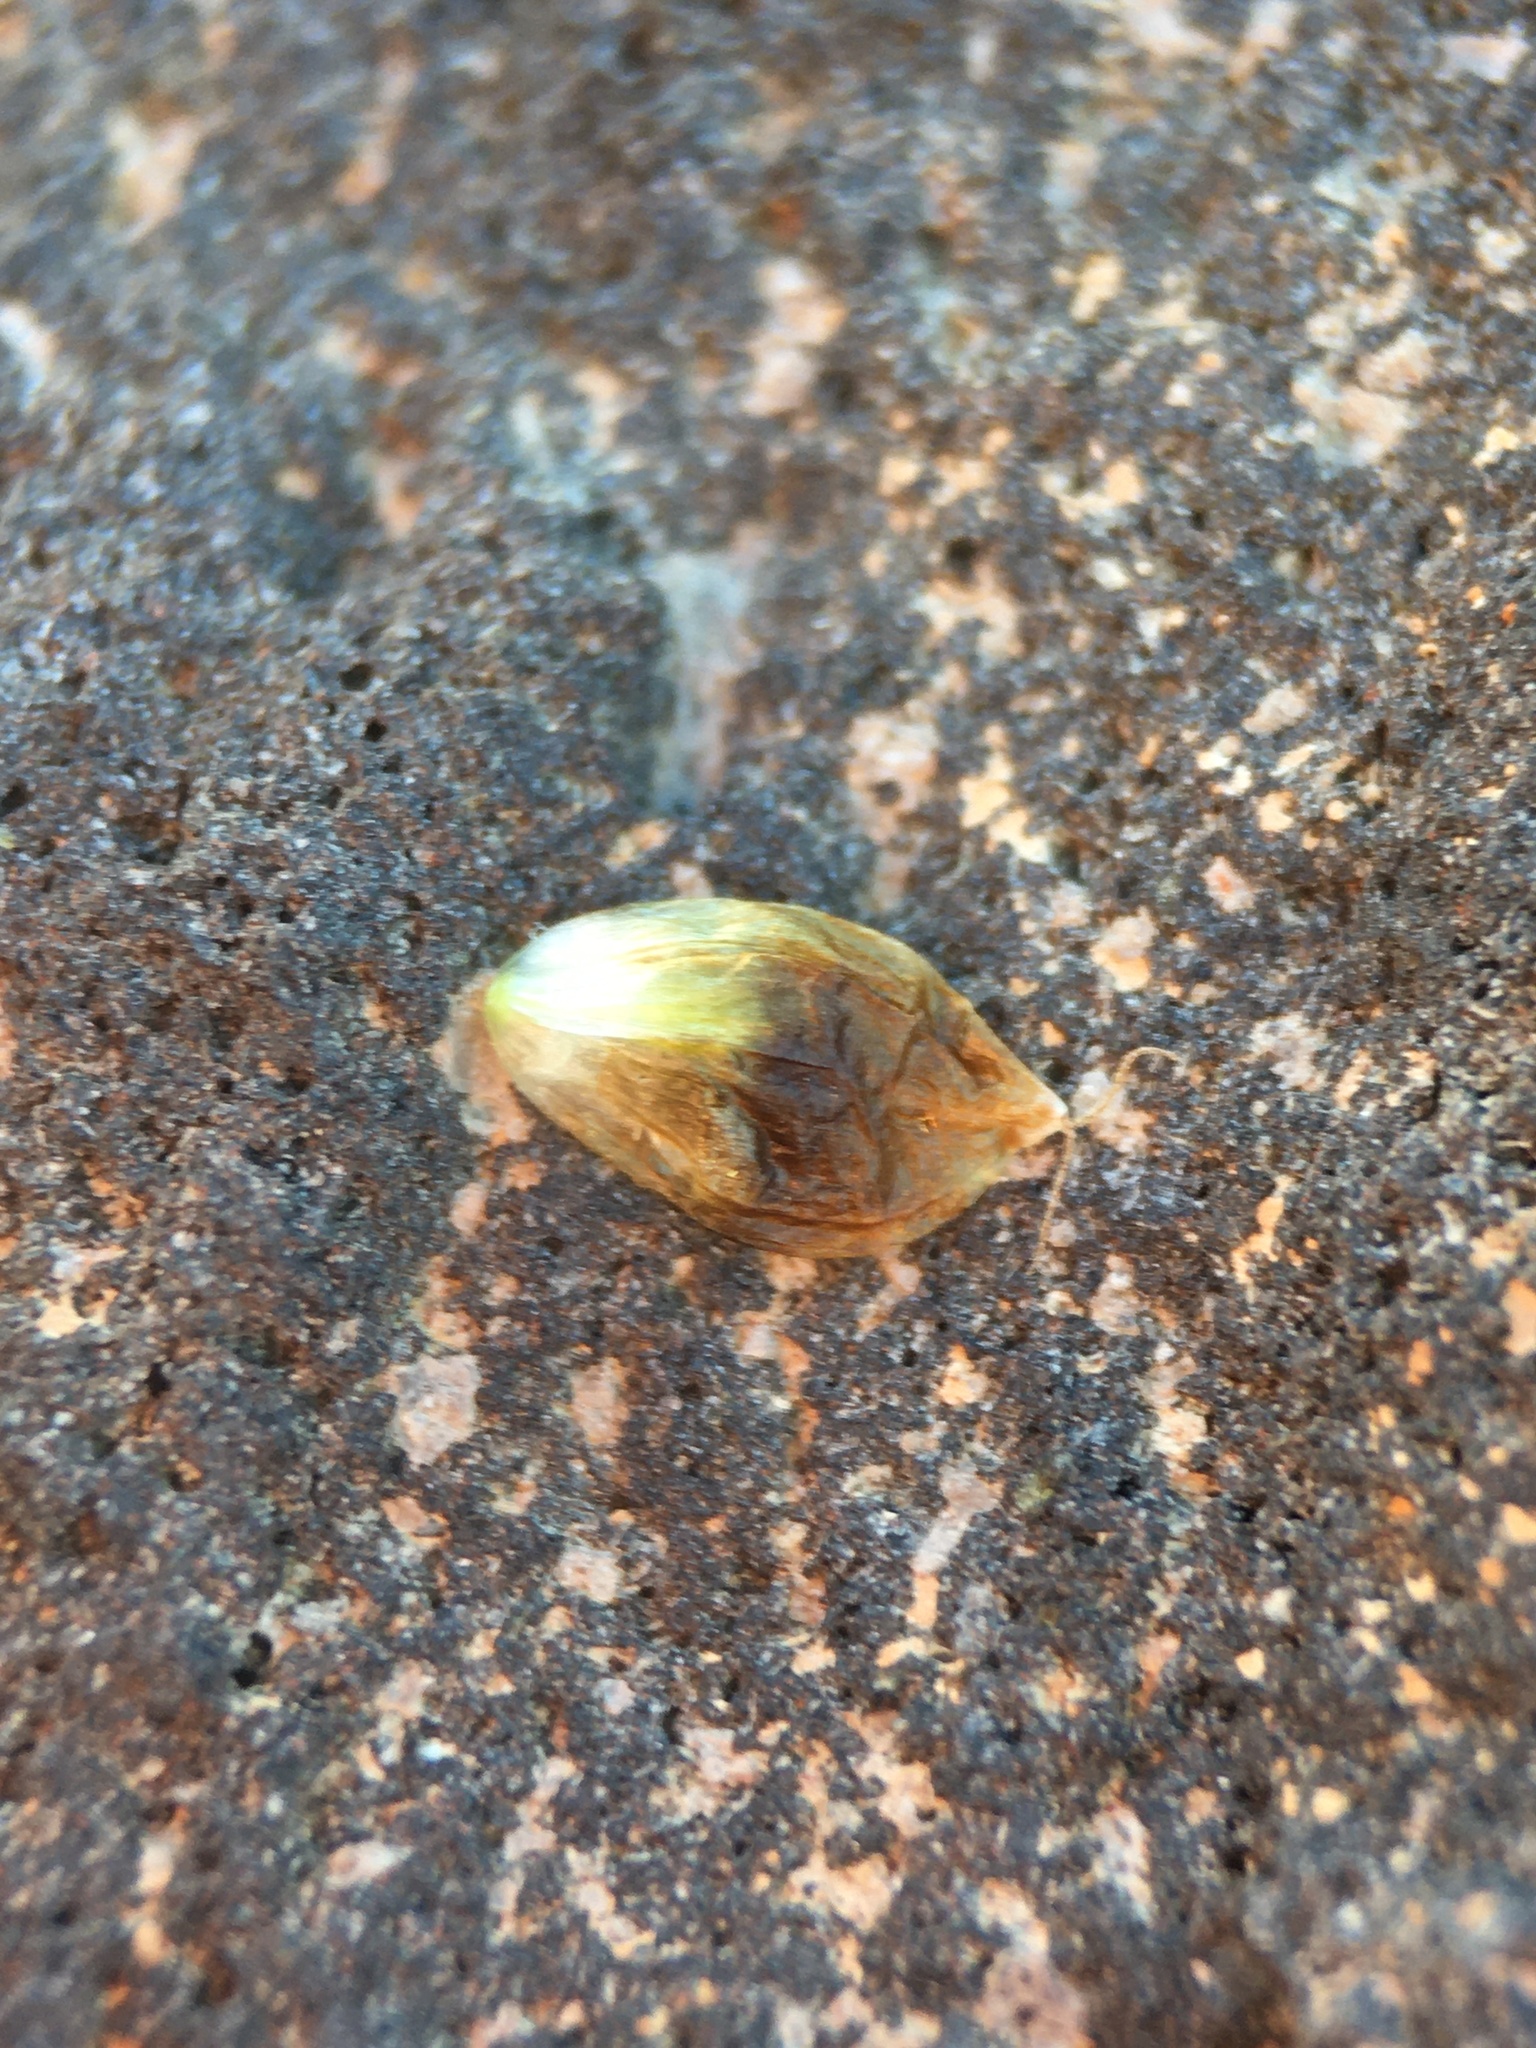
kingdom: Plantae
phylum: Tracheophyta
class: Liliopsida
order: Poales
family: Cyperaceae
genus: Carex
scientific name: Carex breweri
